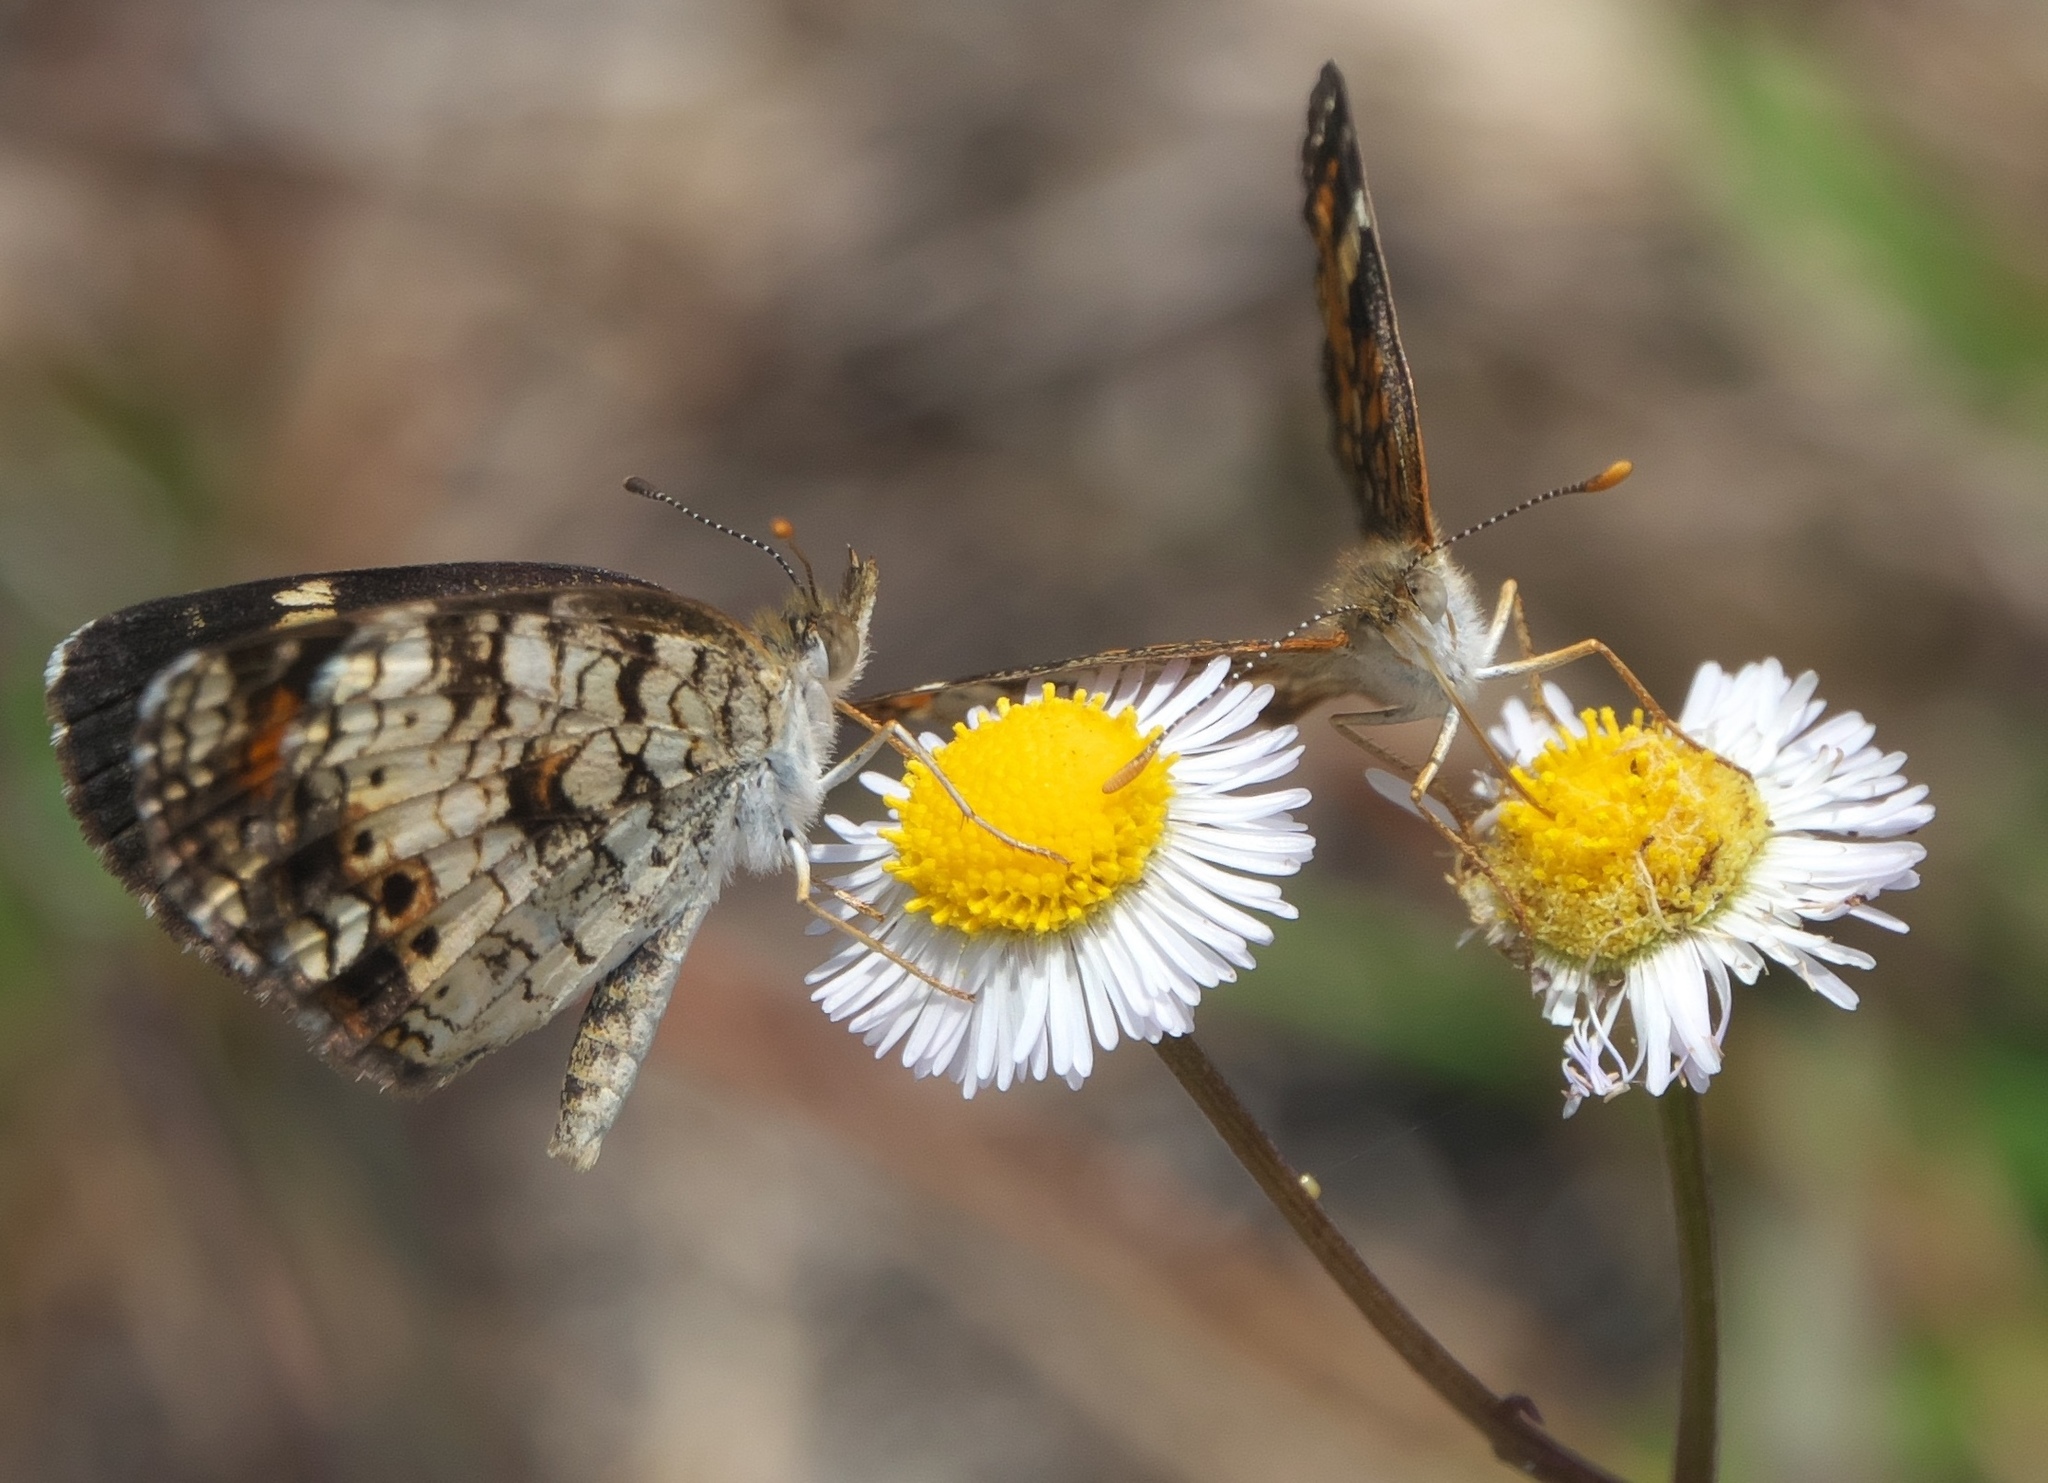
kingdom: Plantae
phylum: Tracheophyta
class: Magnoliopsida
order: Asterales
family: Asteraceae
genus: Erigeron
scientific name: Erigeron quercifolius
